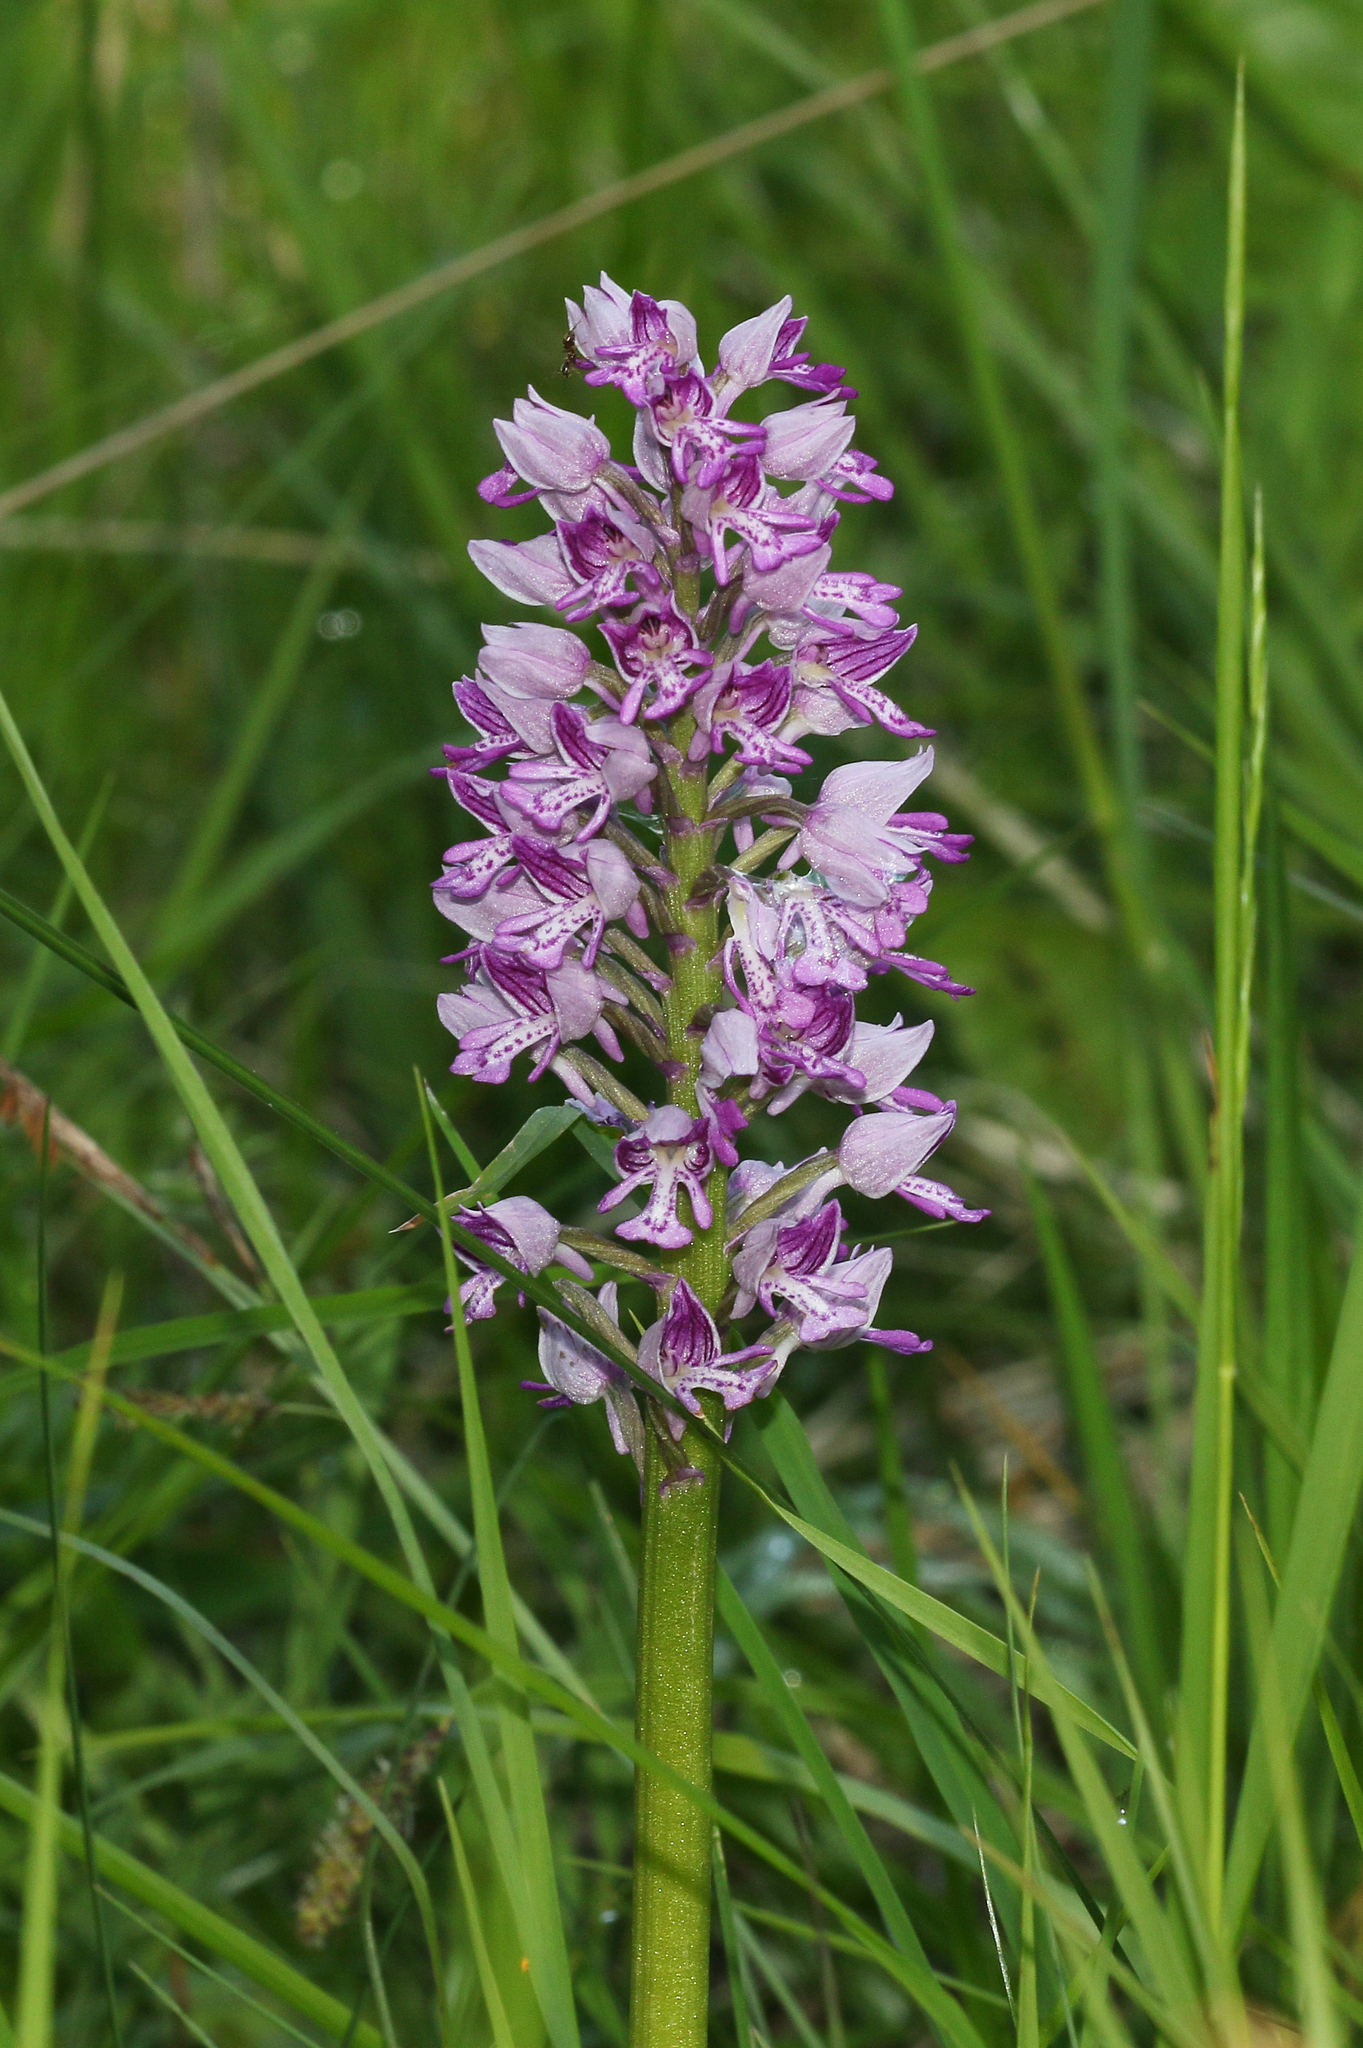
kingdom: Plantae
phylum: Tracheophyta
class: Liliopsida
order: Asparagales
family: Orchidaceae
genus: Orchis
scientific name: Orchis militaris
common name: Military orchid
